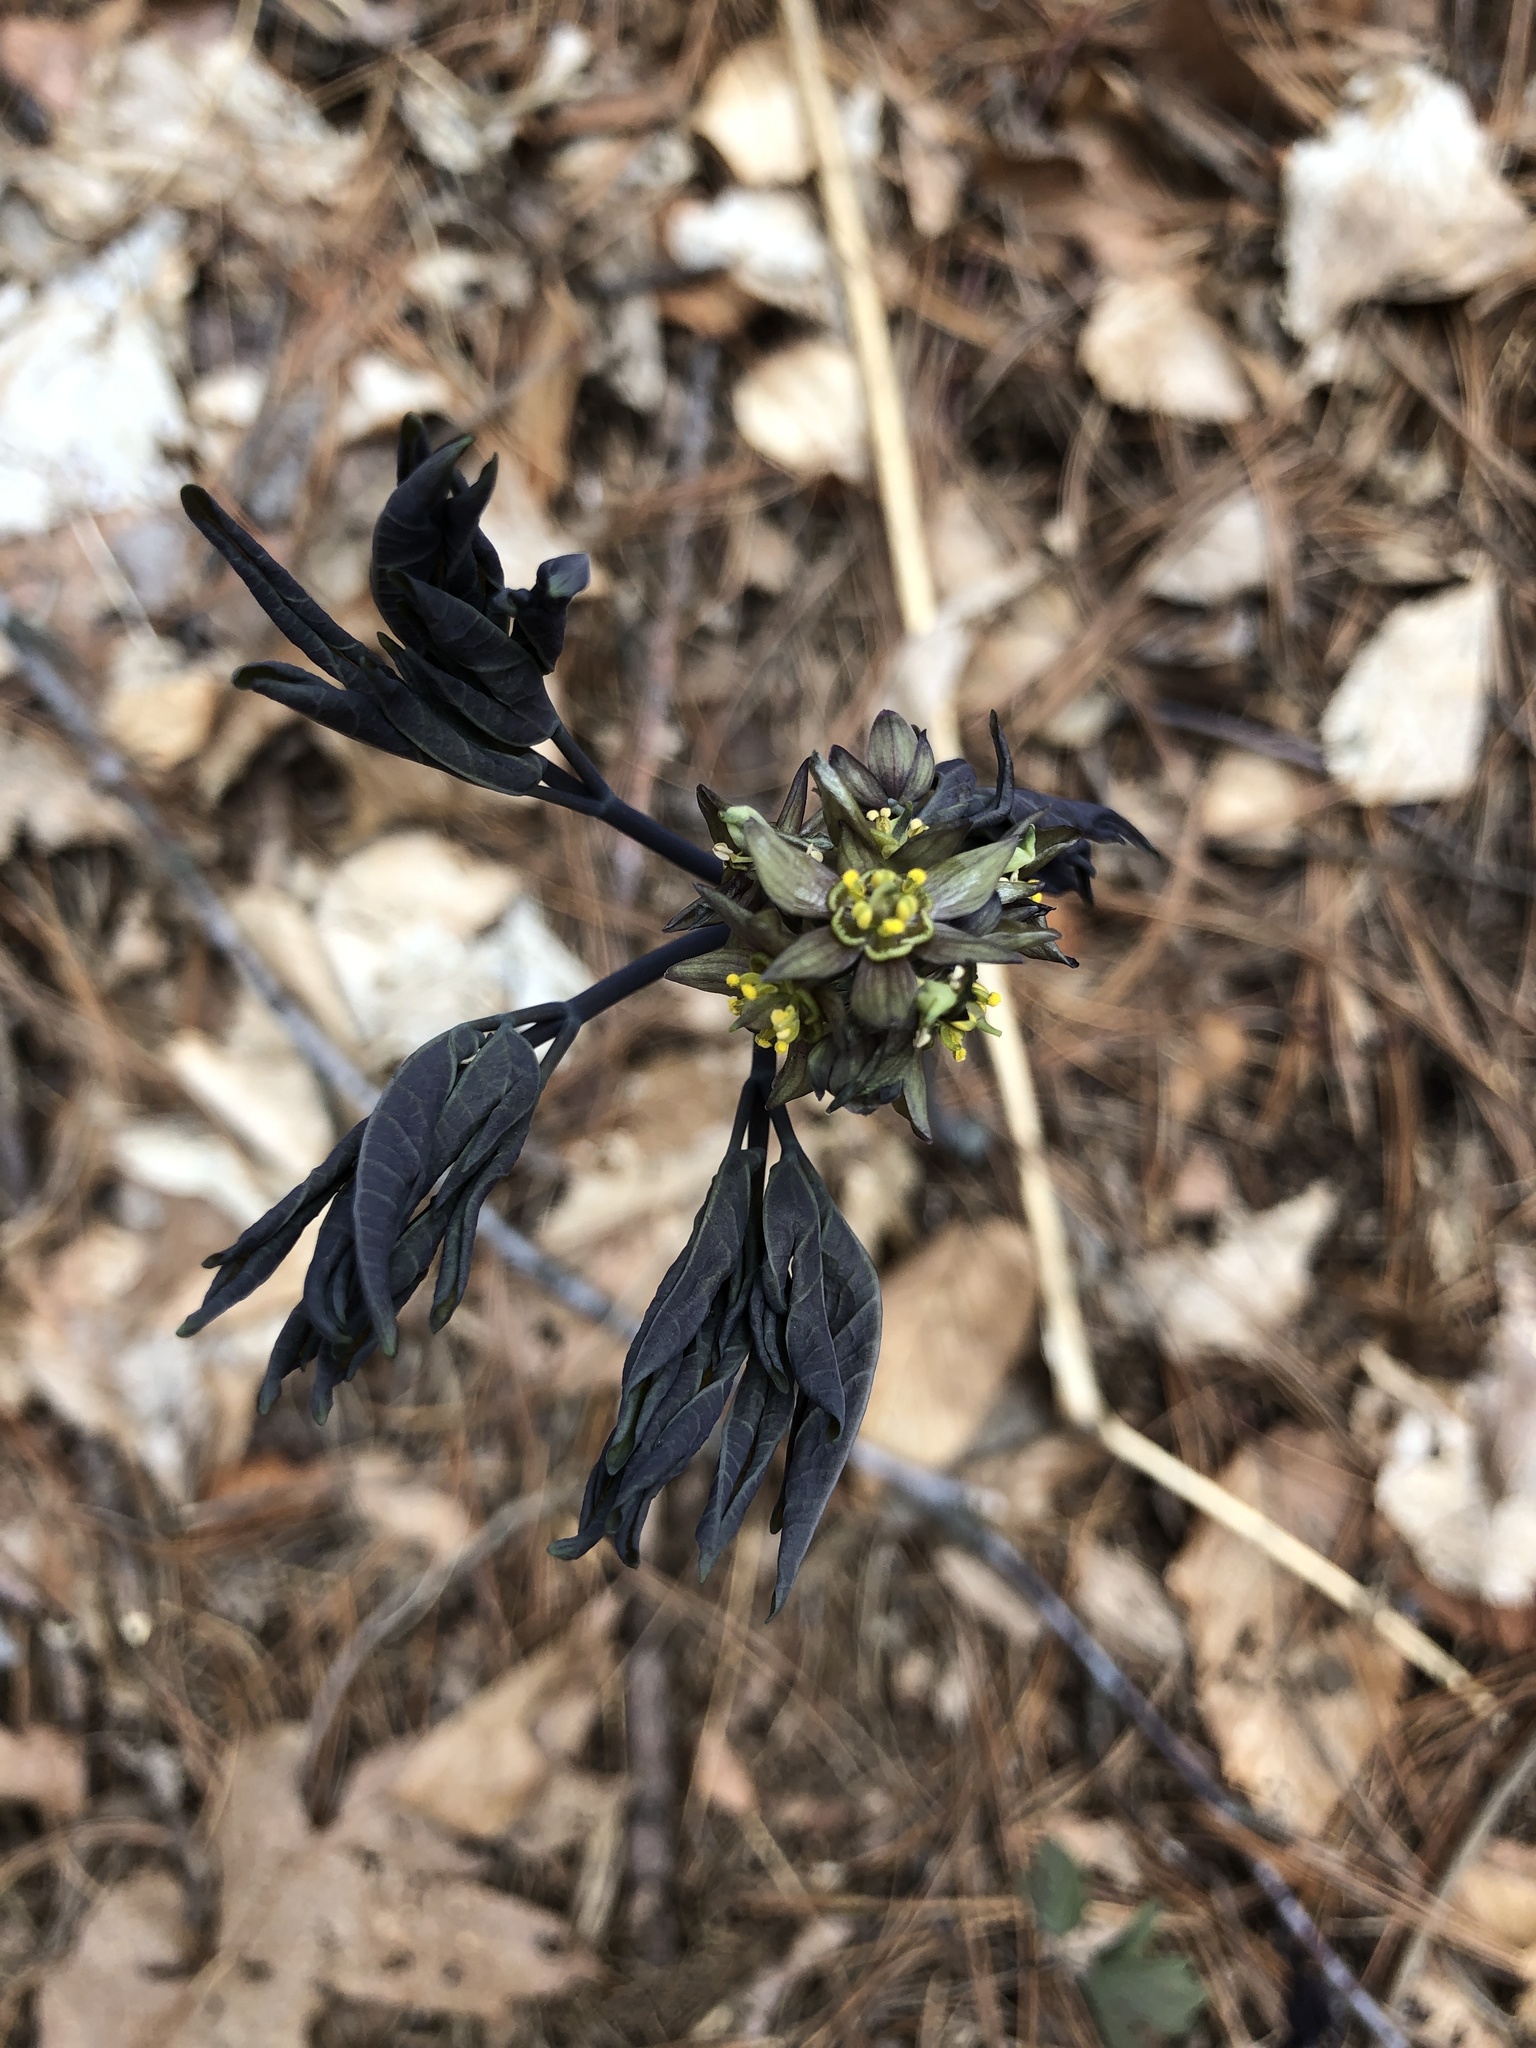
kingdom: Plantae
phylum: Tracheophyta
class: Magnoliopsida
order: Ranunculales
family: Berberidaceae
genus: Caulophyllum
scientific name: Caulophyllum giganteum
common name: Blue cohosh
